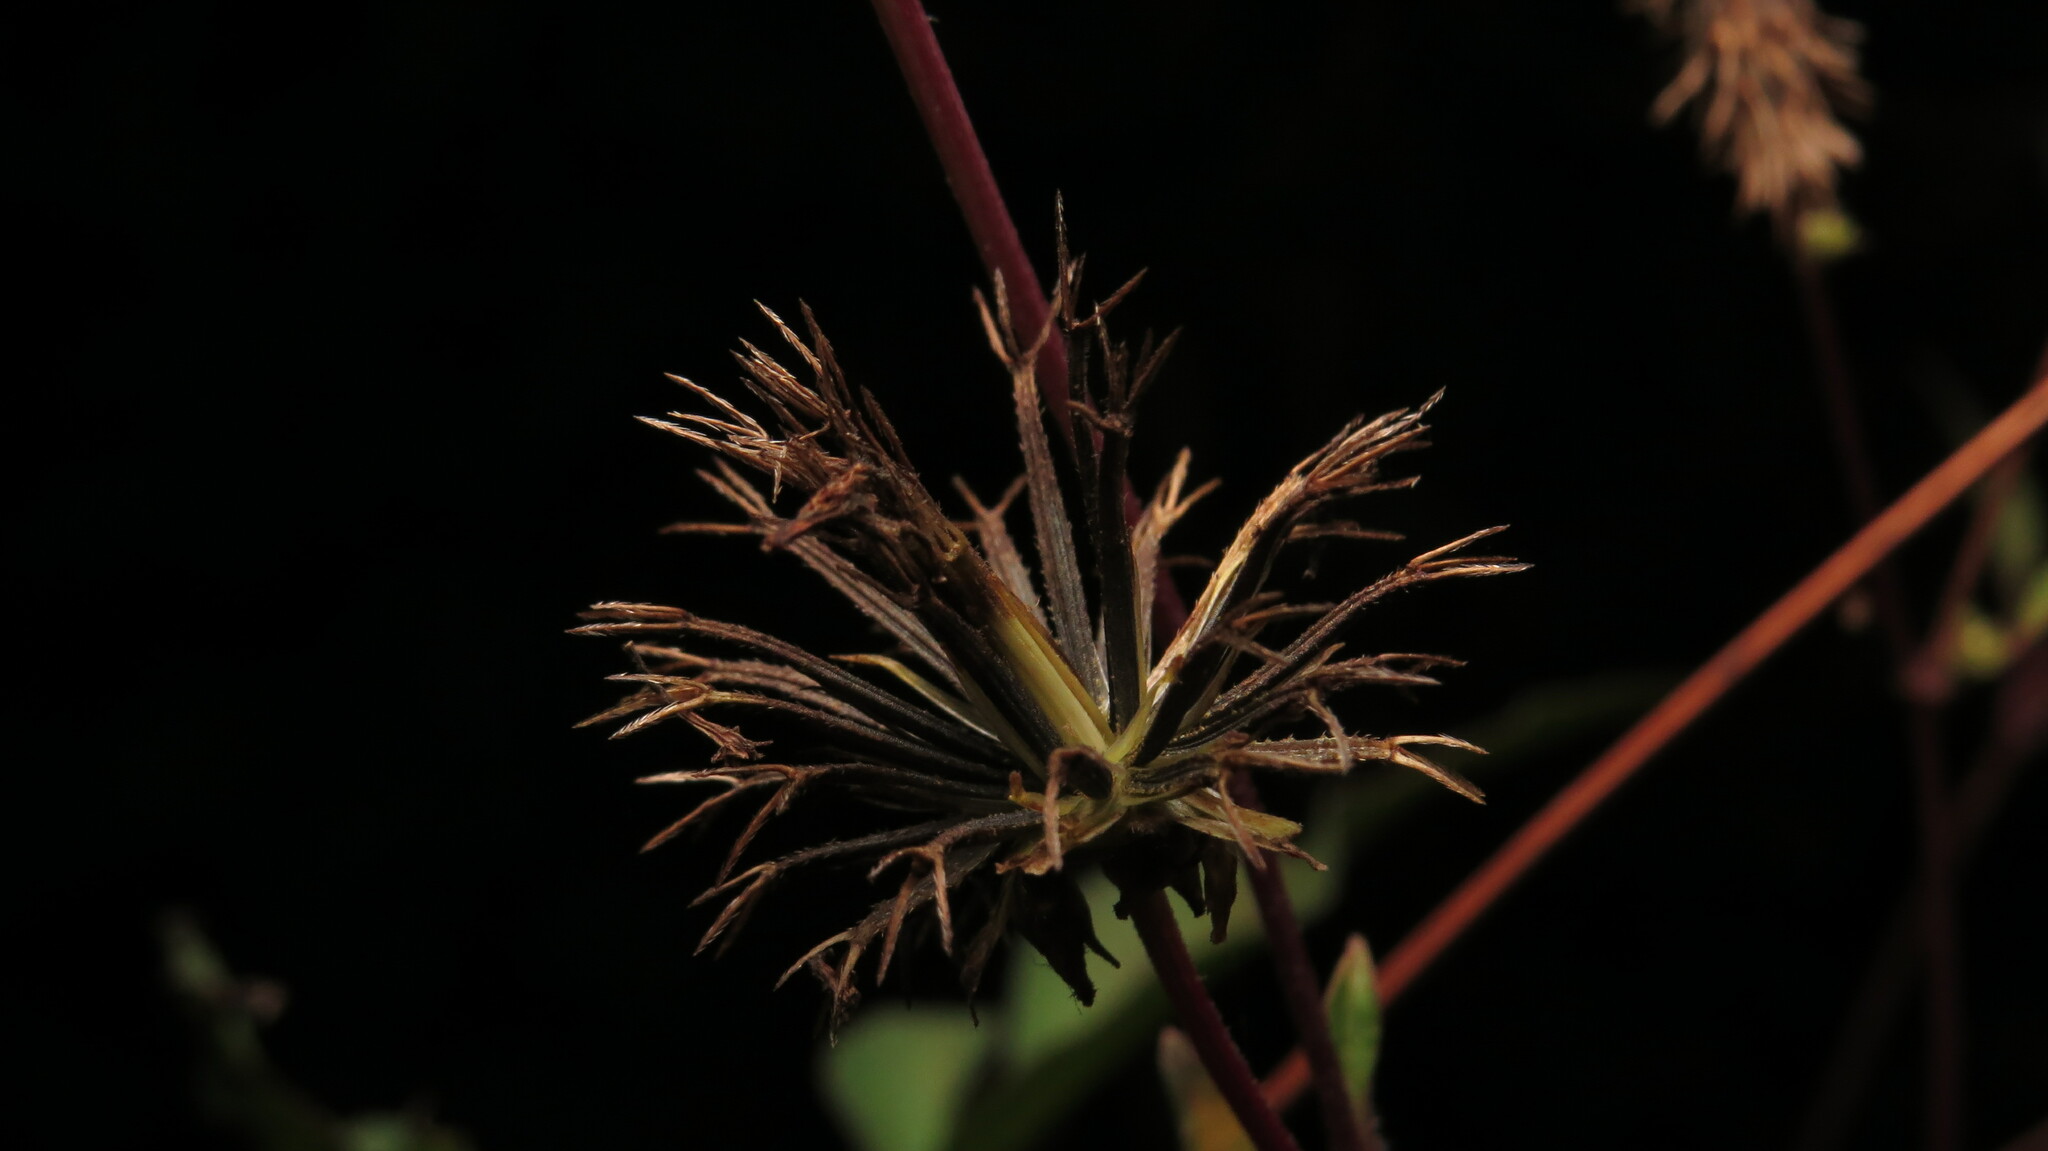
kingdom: Plantae
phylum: Tracheophyta
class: Magnoliopsida
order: Asterales
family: Asteraceae
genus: Bidens
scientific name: Bidens alba
